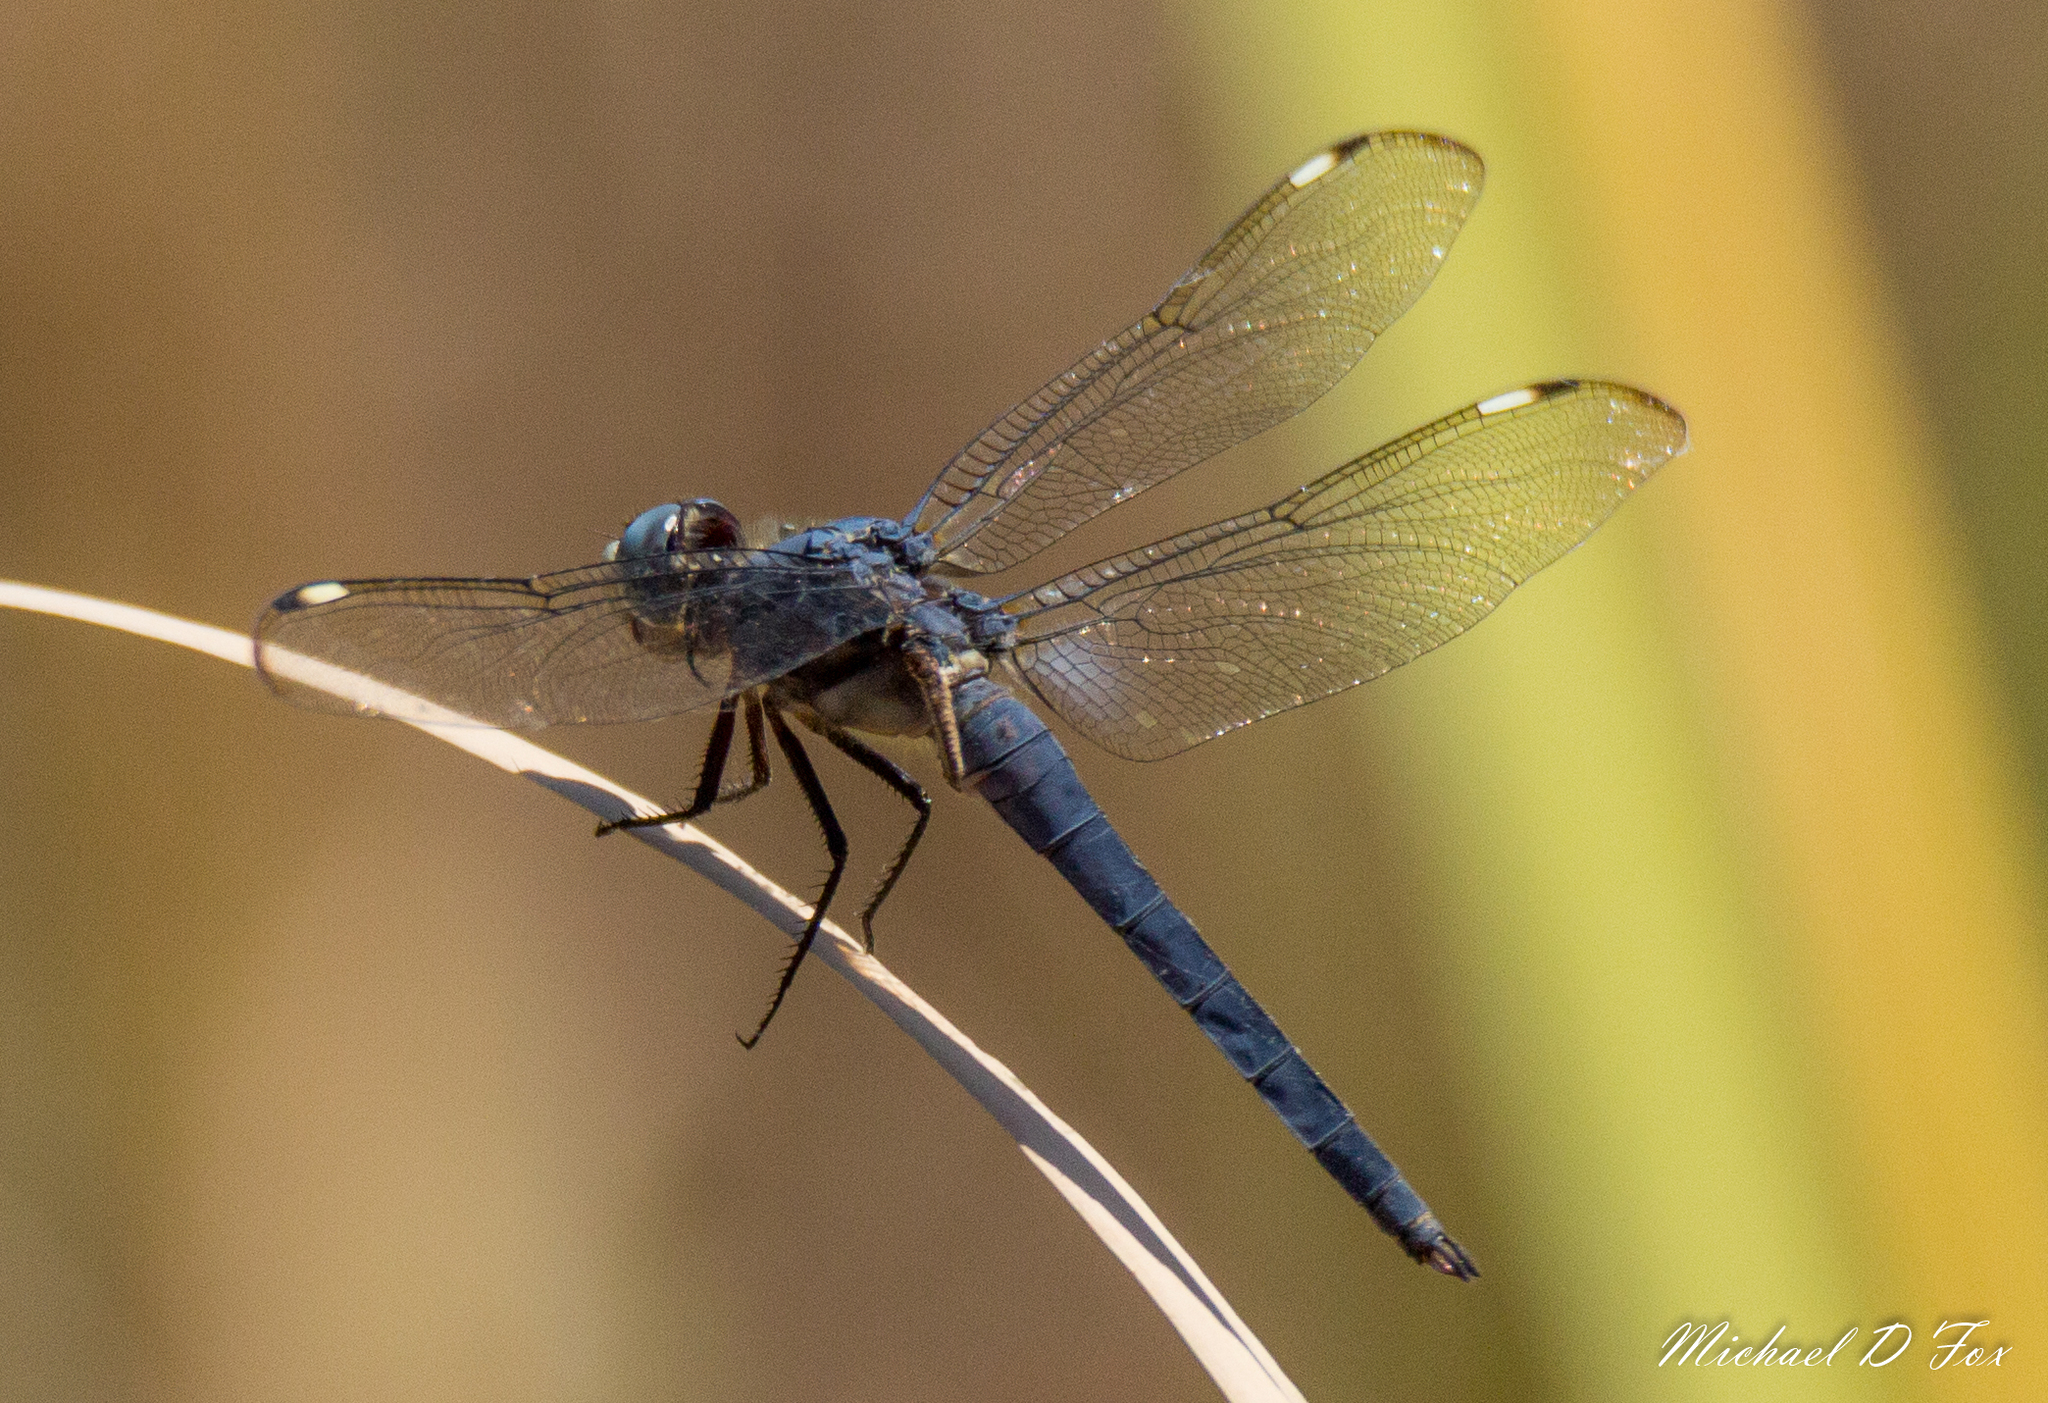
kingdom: Animalia
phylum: Arthropoda
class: Insecta
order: Odonata
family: Libellulidae
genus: Libellula
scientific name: Libellula comanche
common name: Comanche skimmer
